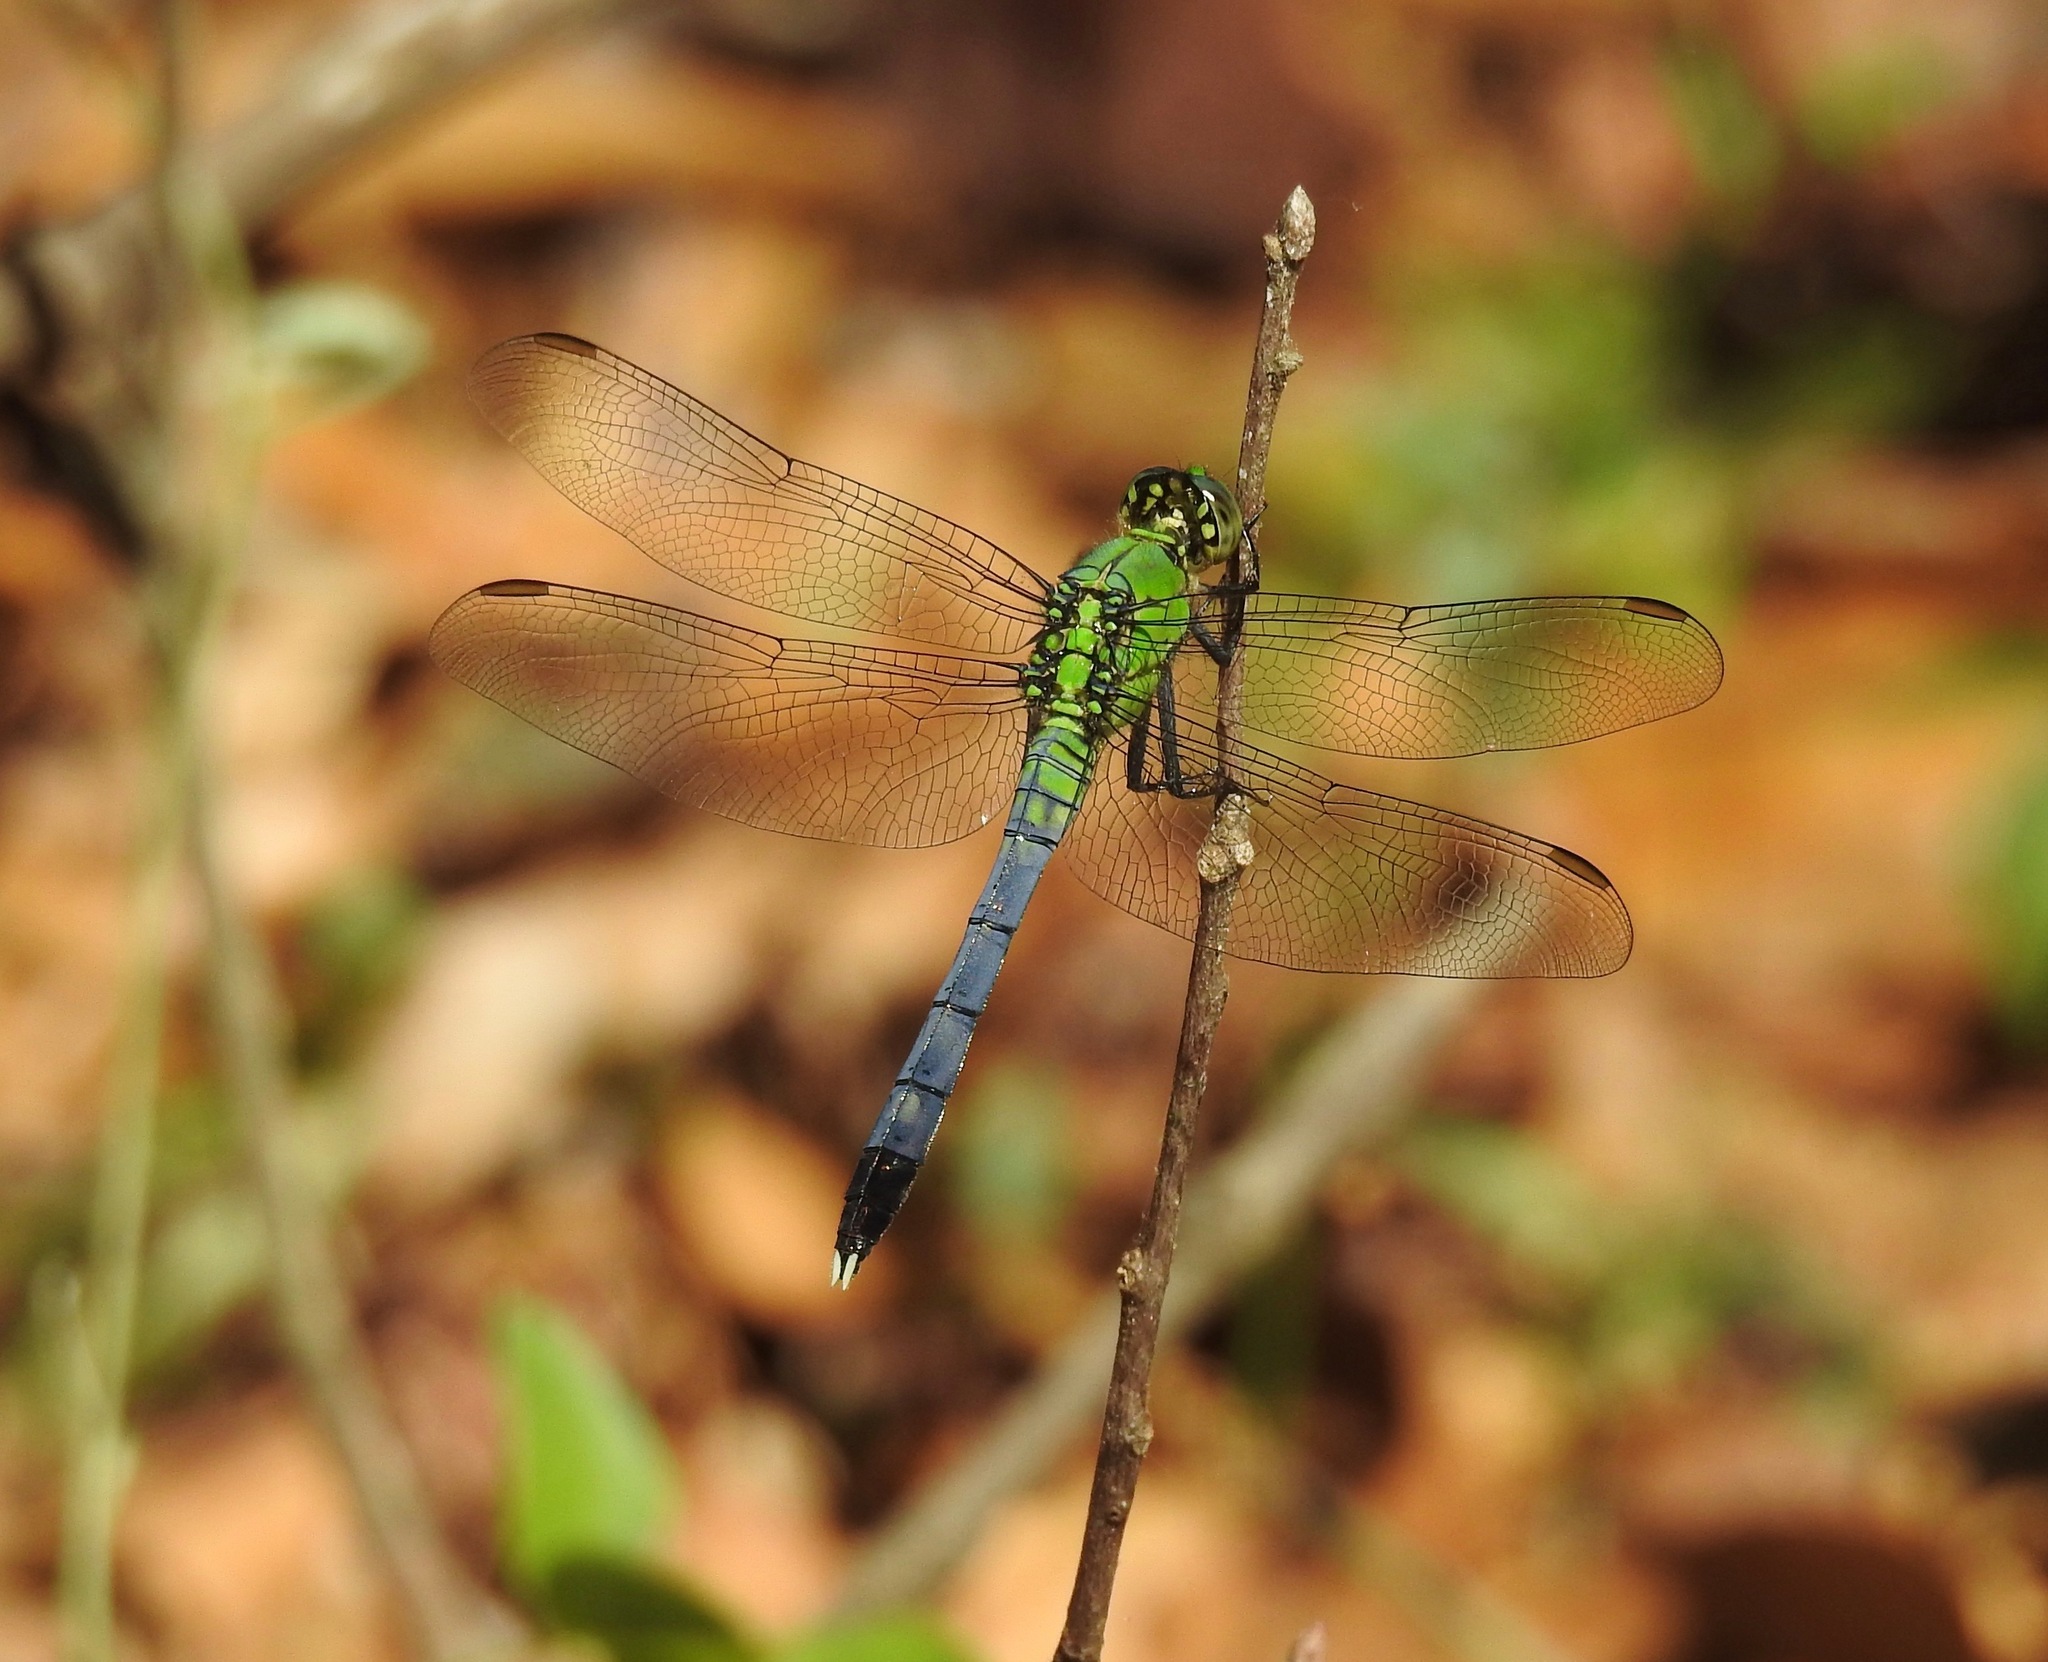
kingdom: Animalia
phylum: Arthropoda
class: Insecta
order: Odonata
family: Libellulidae
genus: Erythemis
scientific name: Erythemis simplicicollis
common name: Eastern pondhawk
